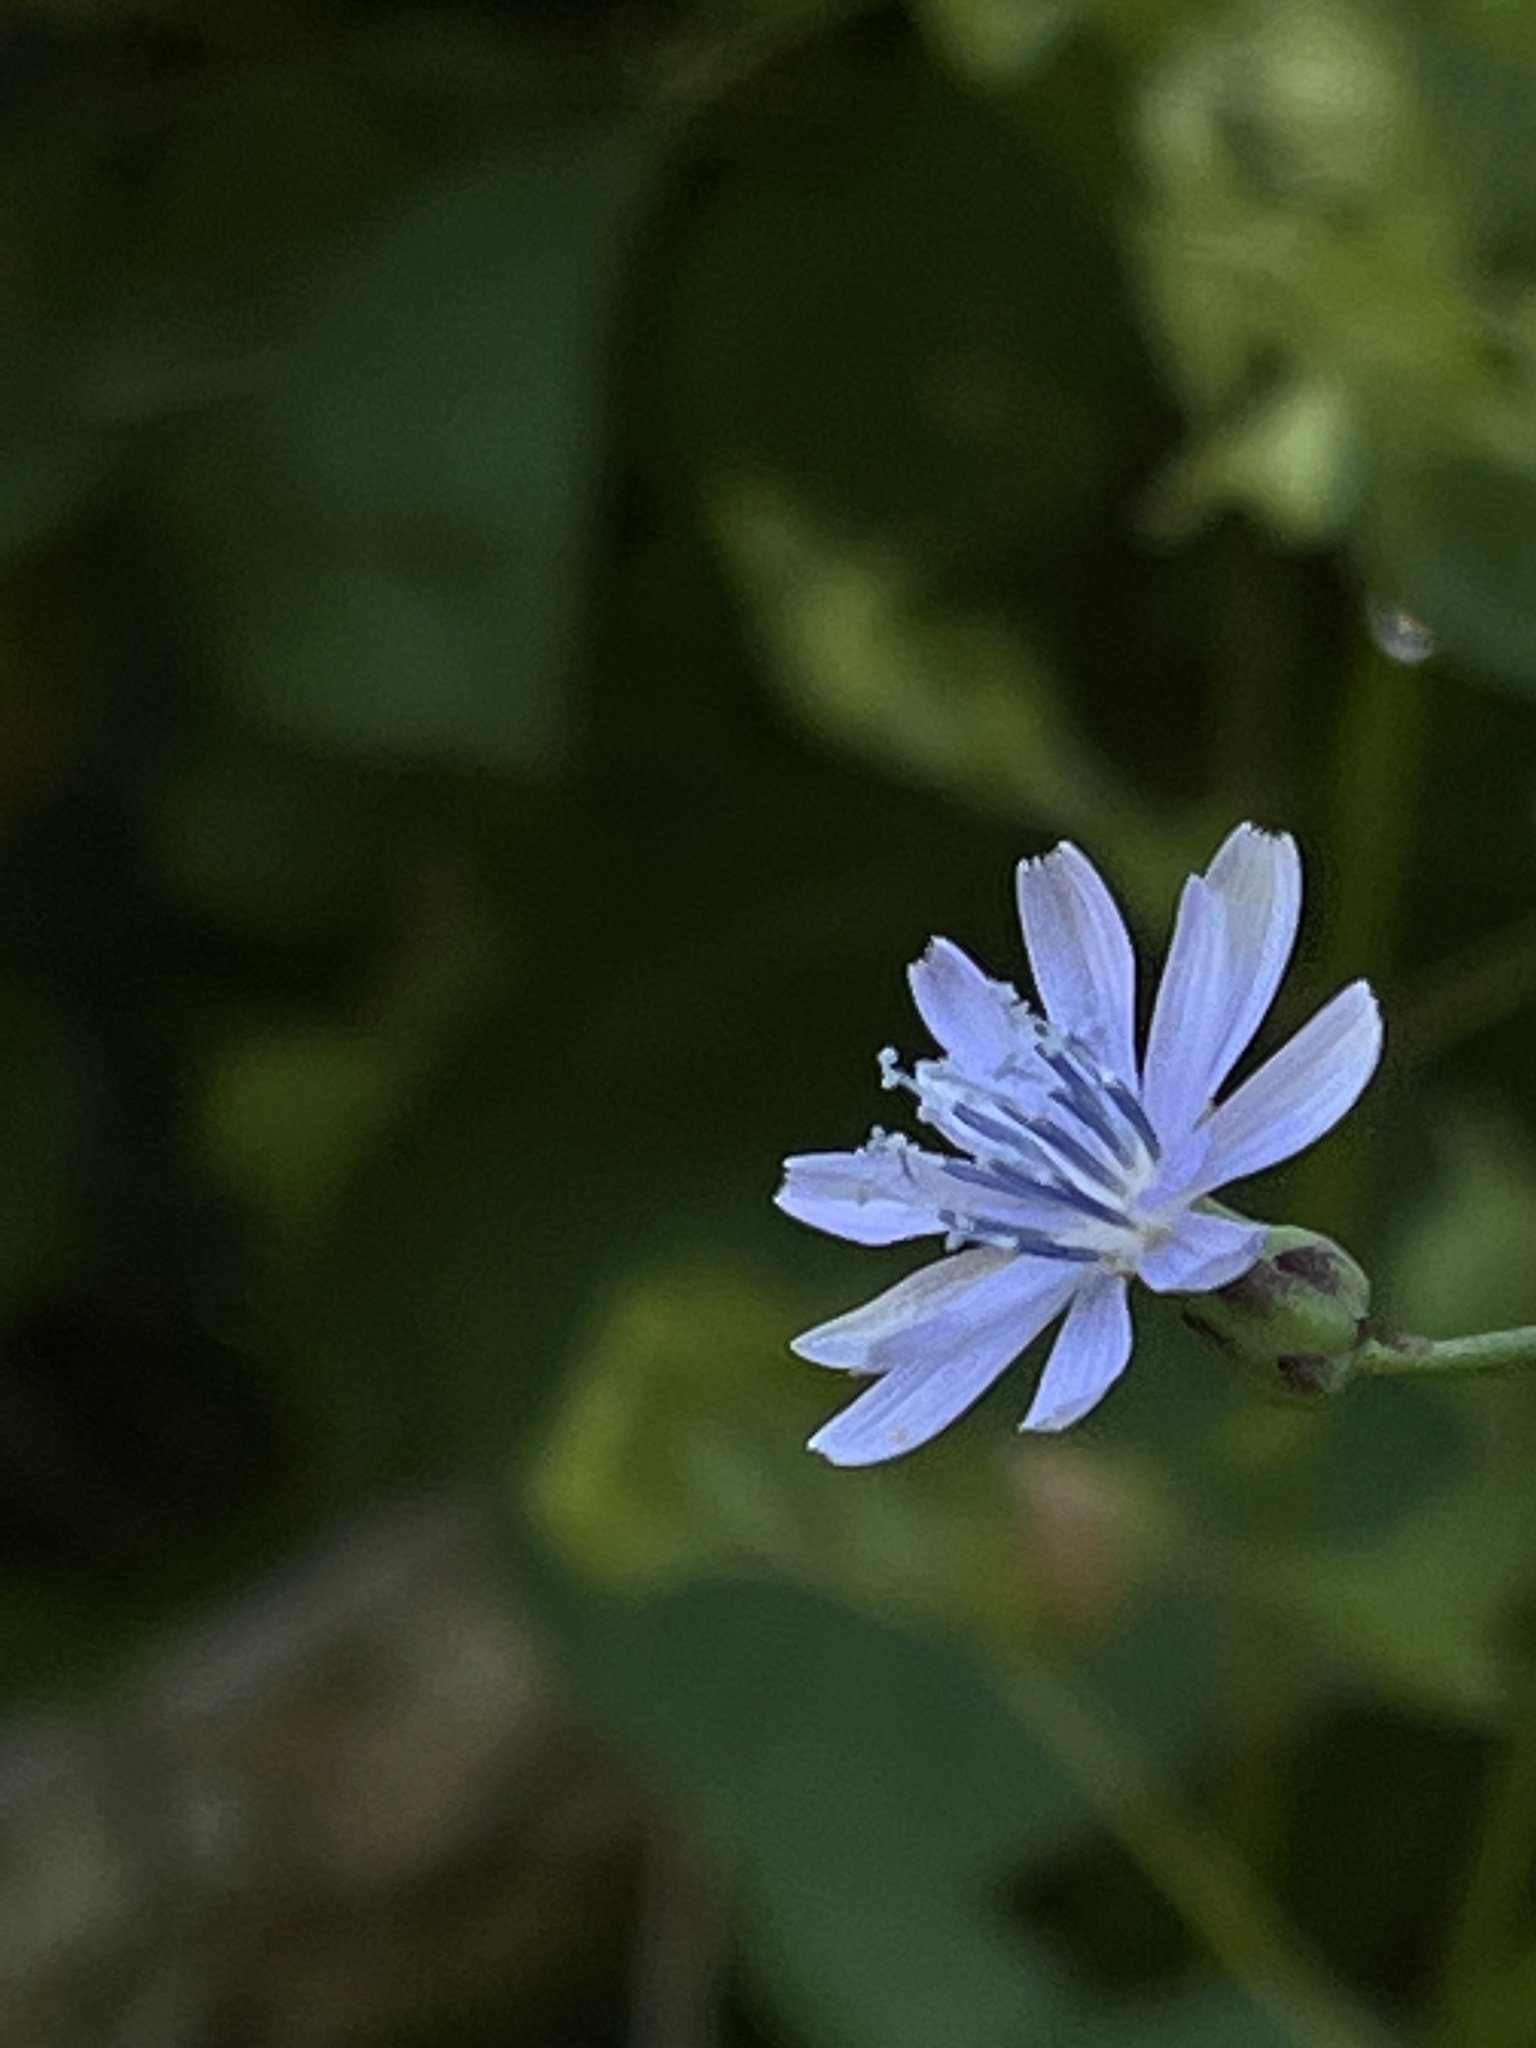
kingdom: Plantae
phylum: Tracheophyta
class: Magnoliopsida
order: Asterales
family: Asteraceae
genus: Lactuca
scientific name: Lactuca floridana
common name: Woodland lettuce
